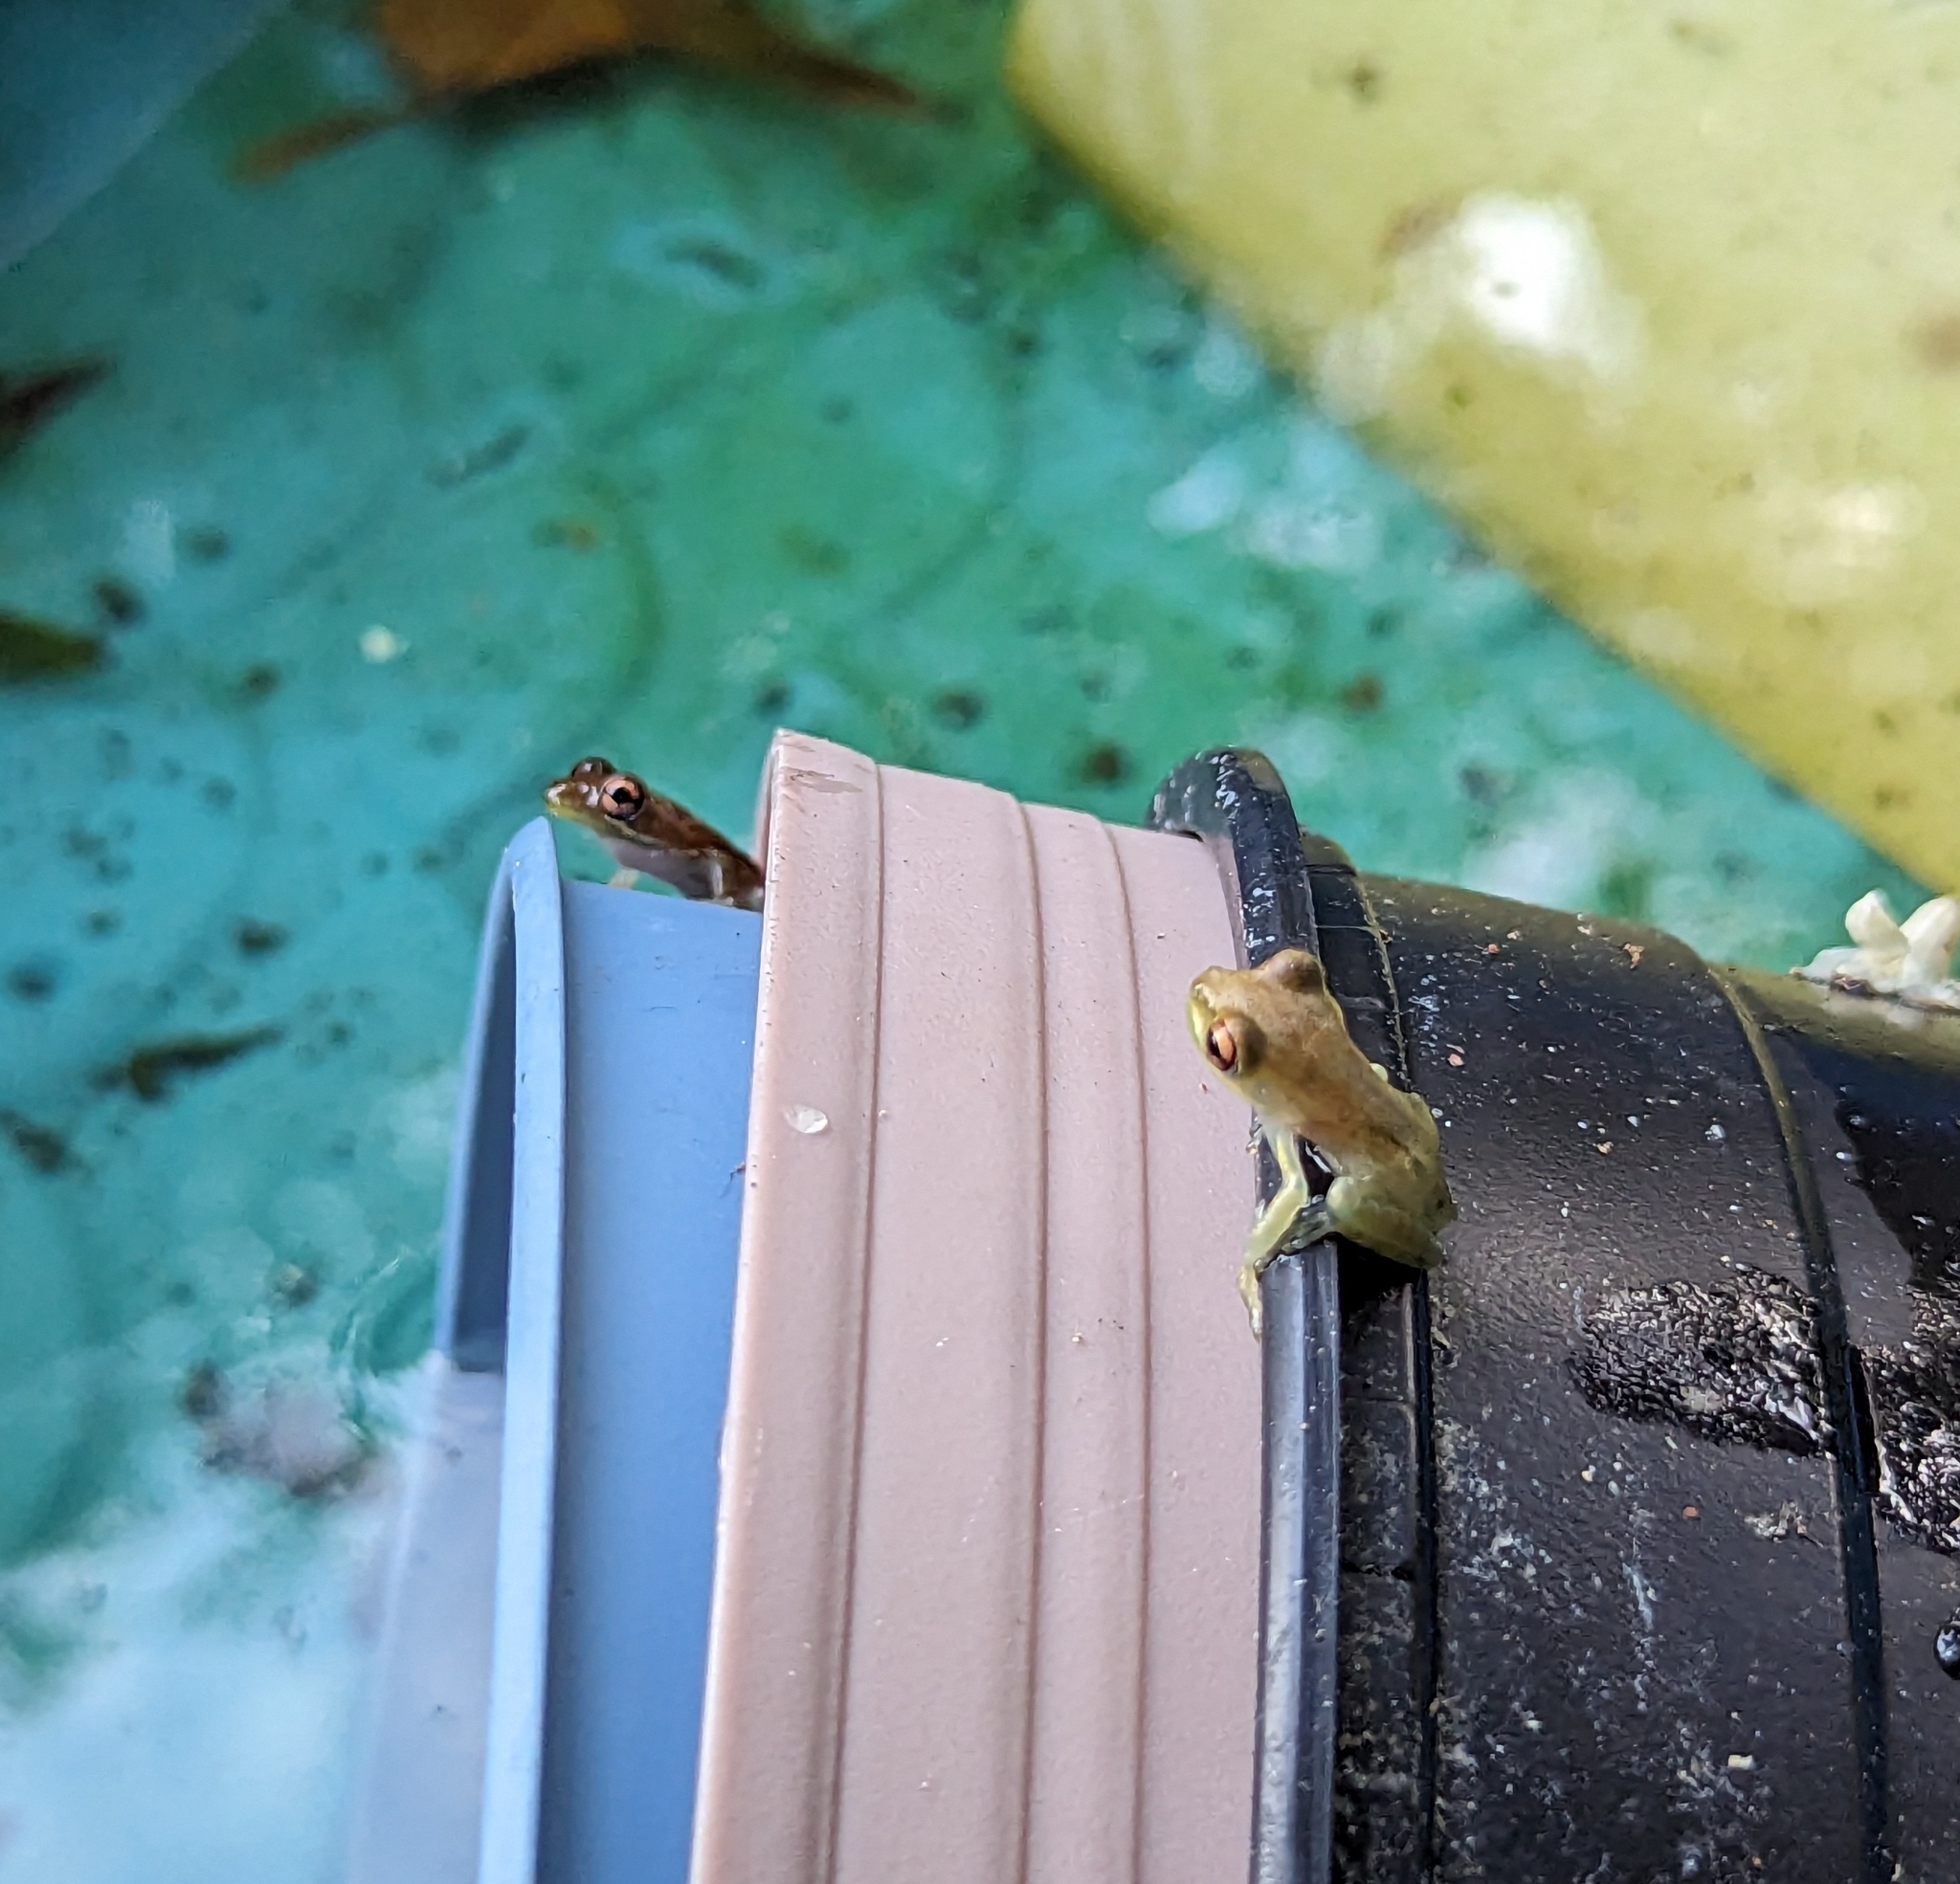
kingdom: Animalia
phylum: Chordata
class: Amphibia
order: Anura
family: Hylidae
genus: Osteopilus
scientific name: Osteopilus septentrionalis
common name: Cuban treefrog
